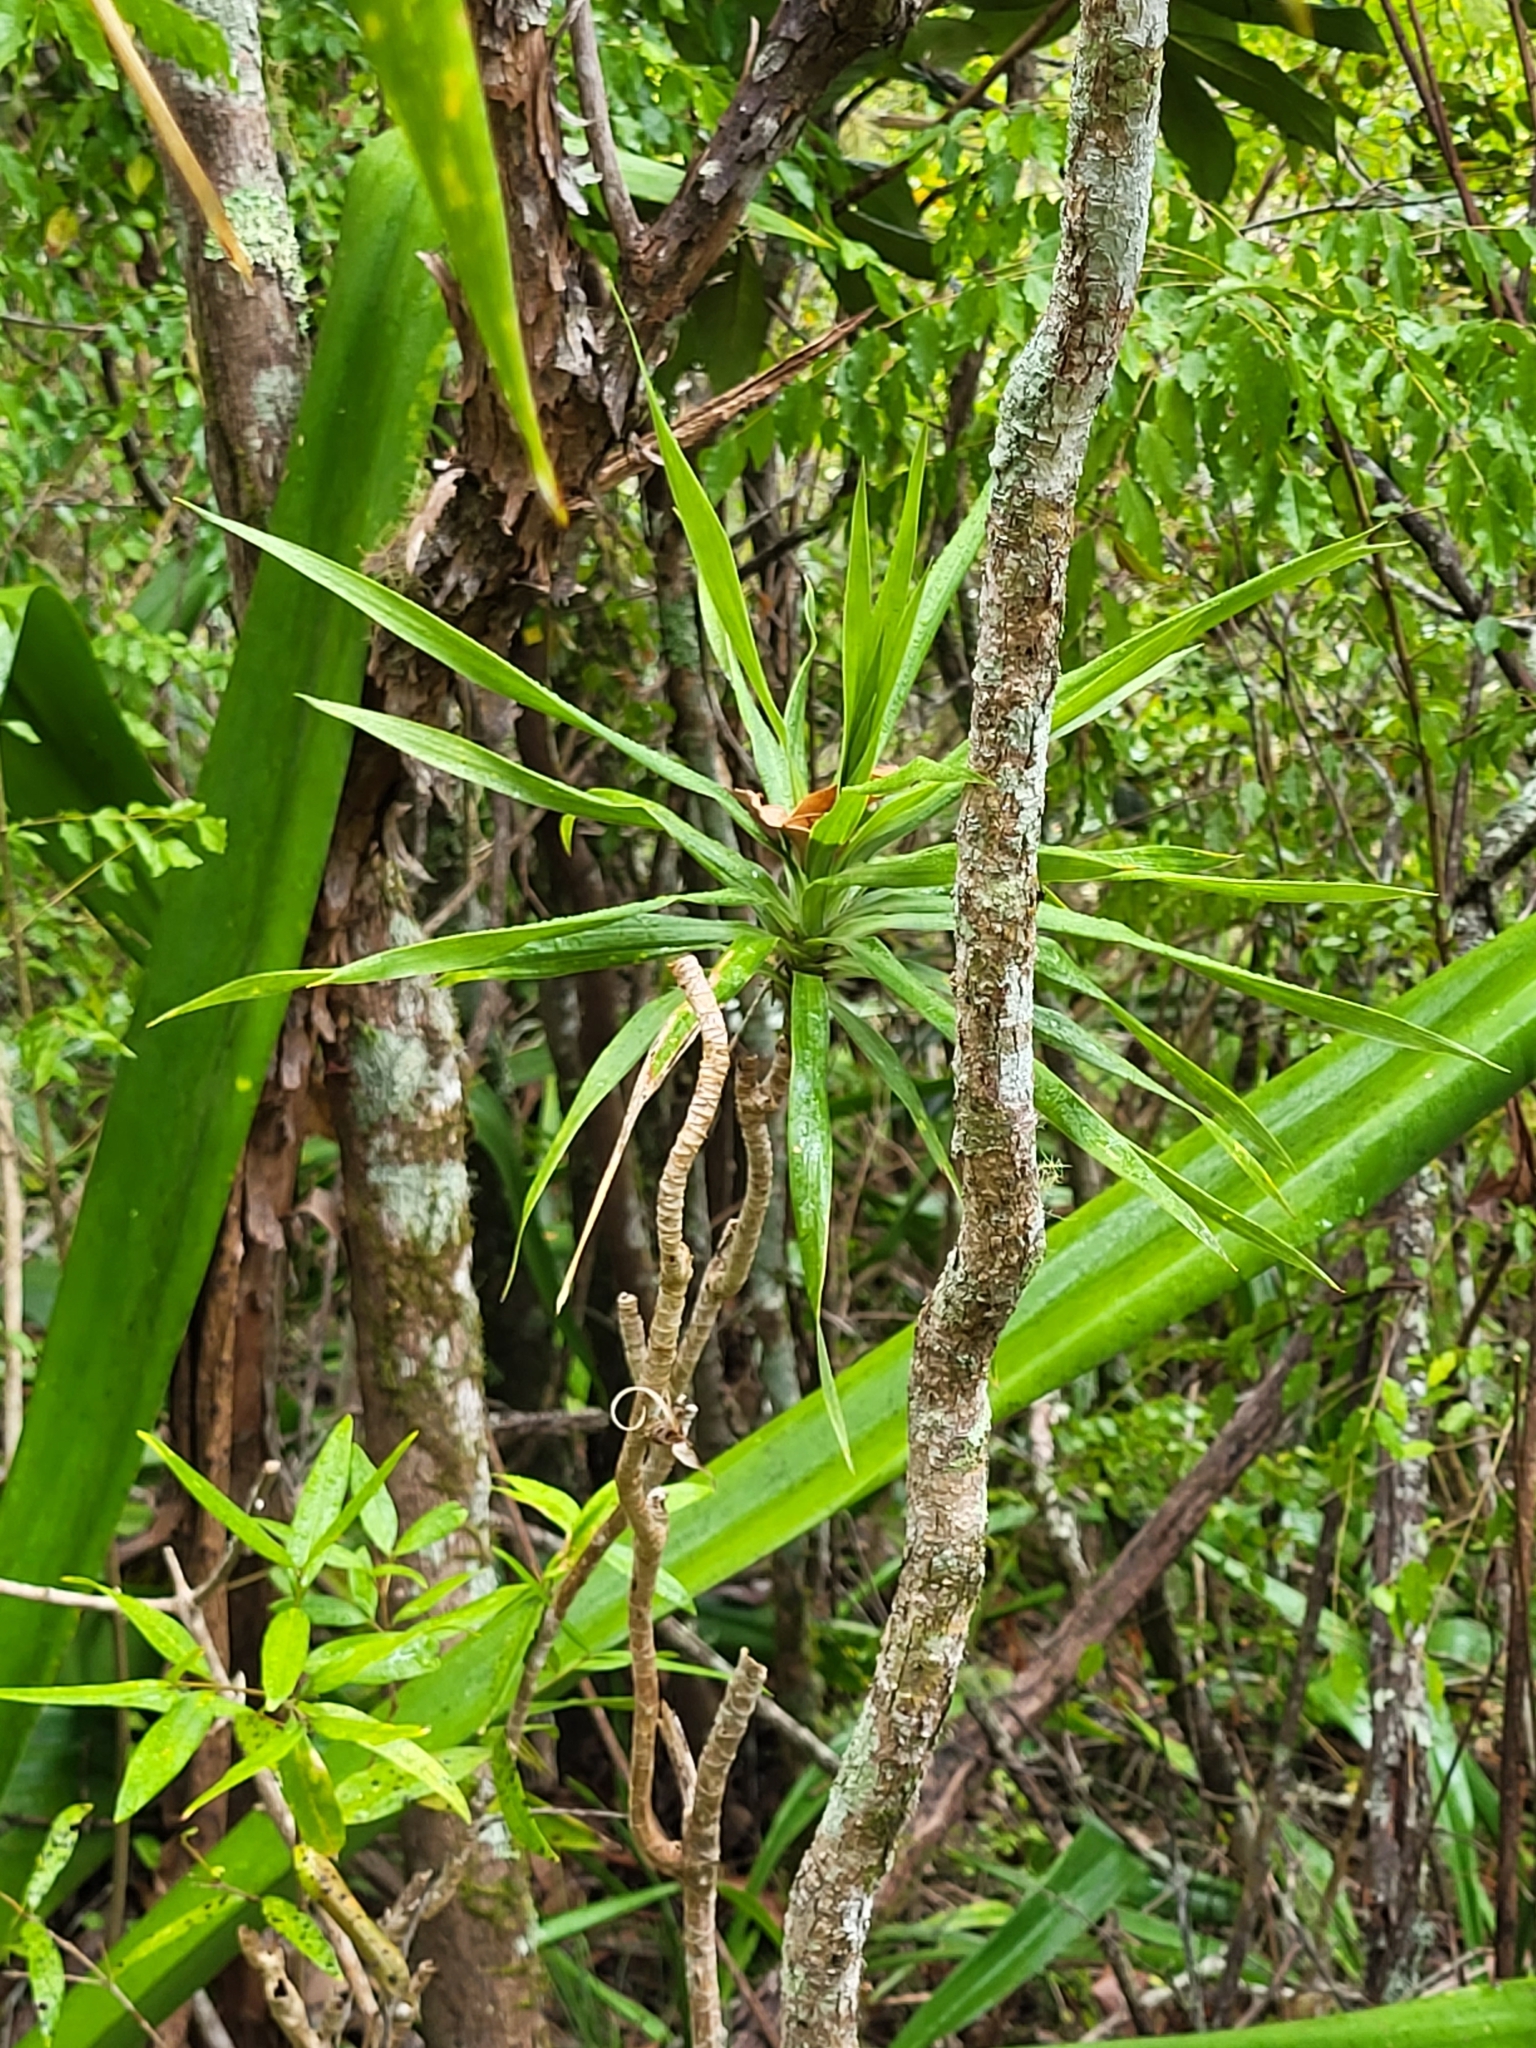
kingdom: Plantae
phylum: Tracheophyta
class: Liliopsida
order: Asparagales
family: Asparagaceae
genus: Dracaena
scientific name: Dracaena reflexa
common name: Song-of-india
